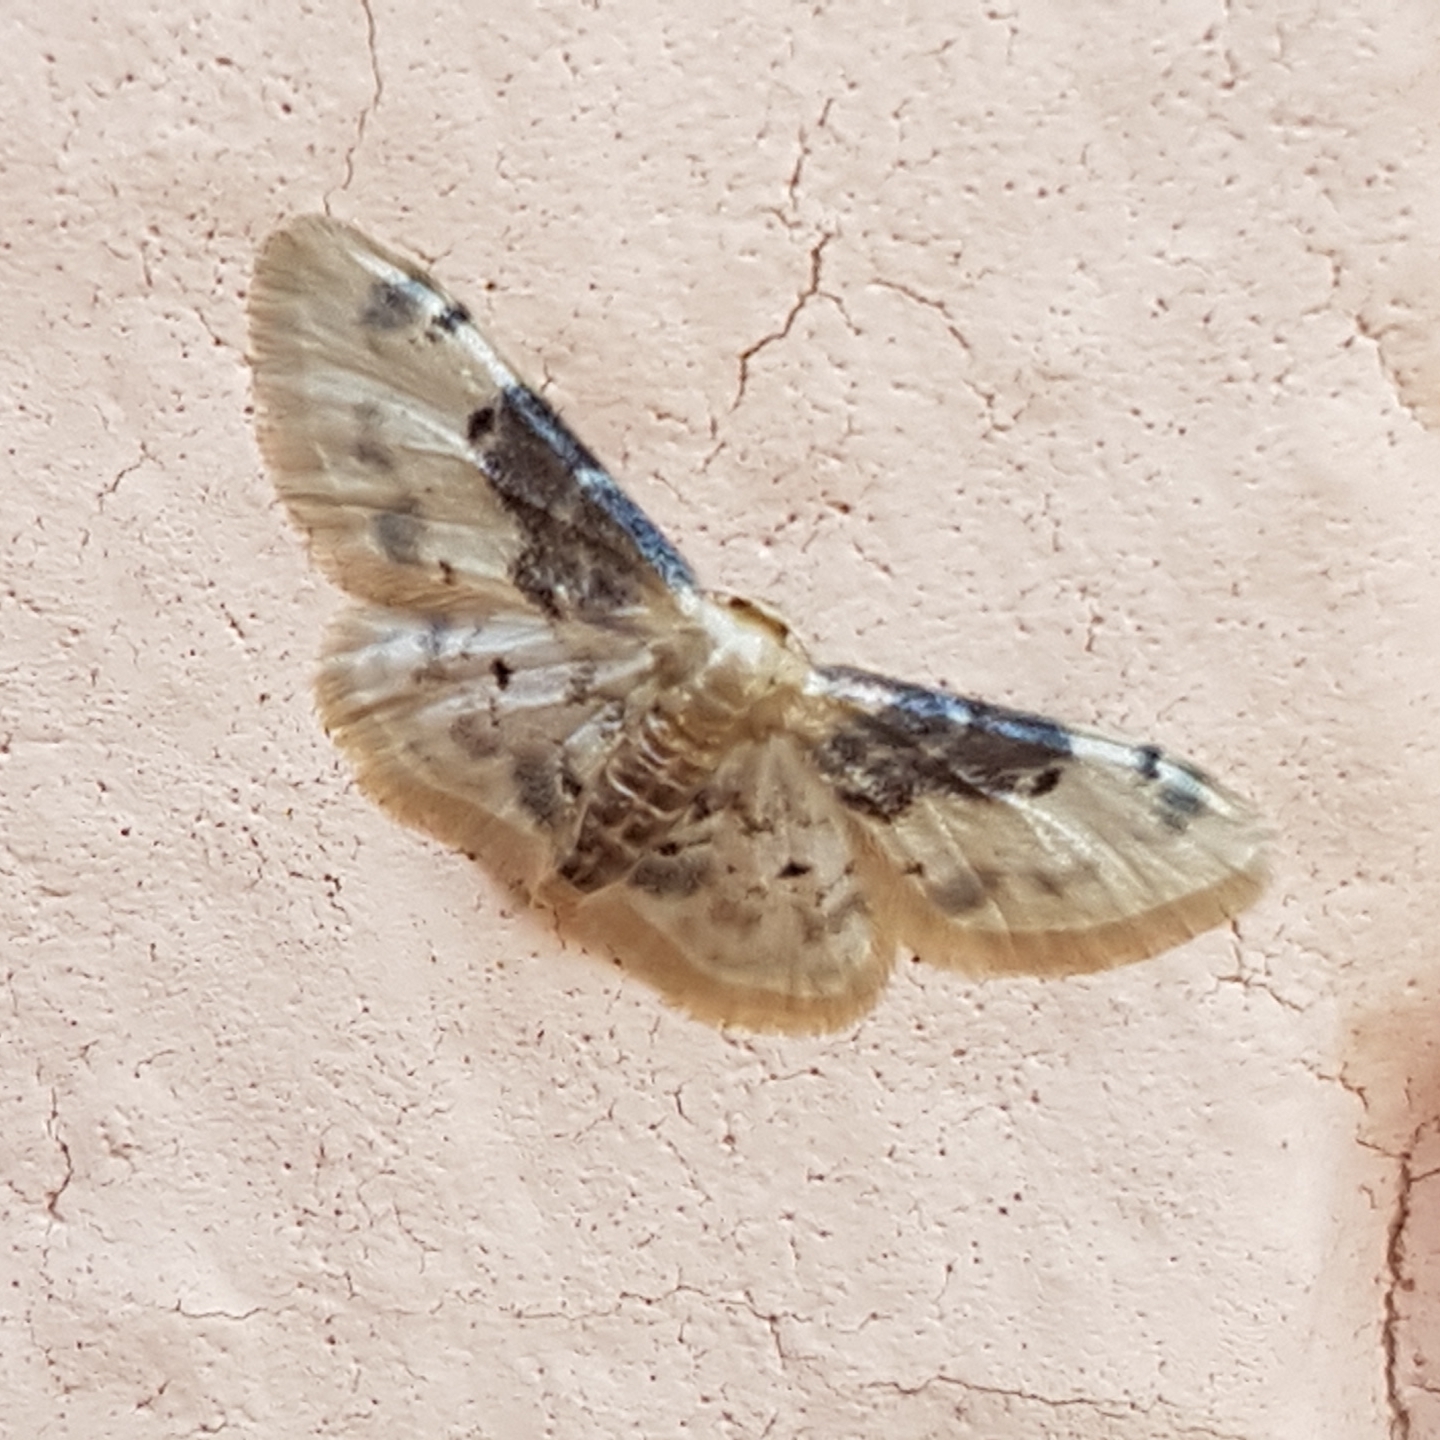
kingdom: Animalia
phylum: Arthropoda
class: Insecta
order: Lepidoptera
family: Geometridae
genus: Idaea
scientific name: Idaea filicata
